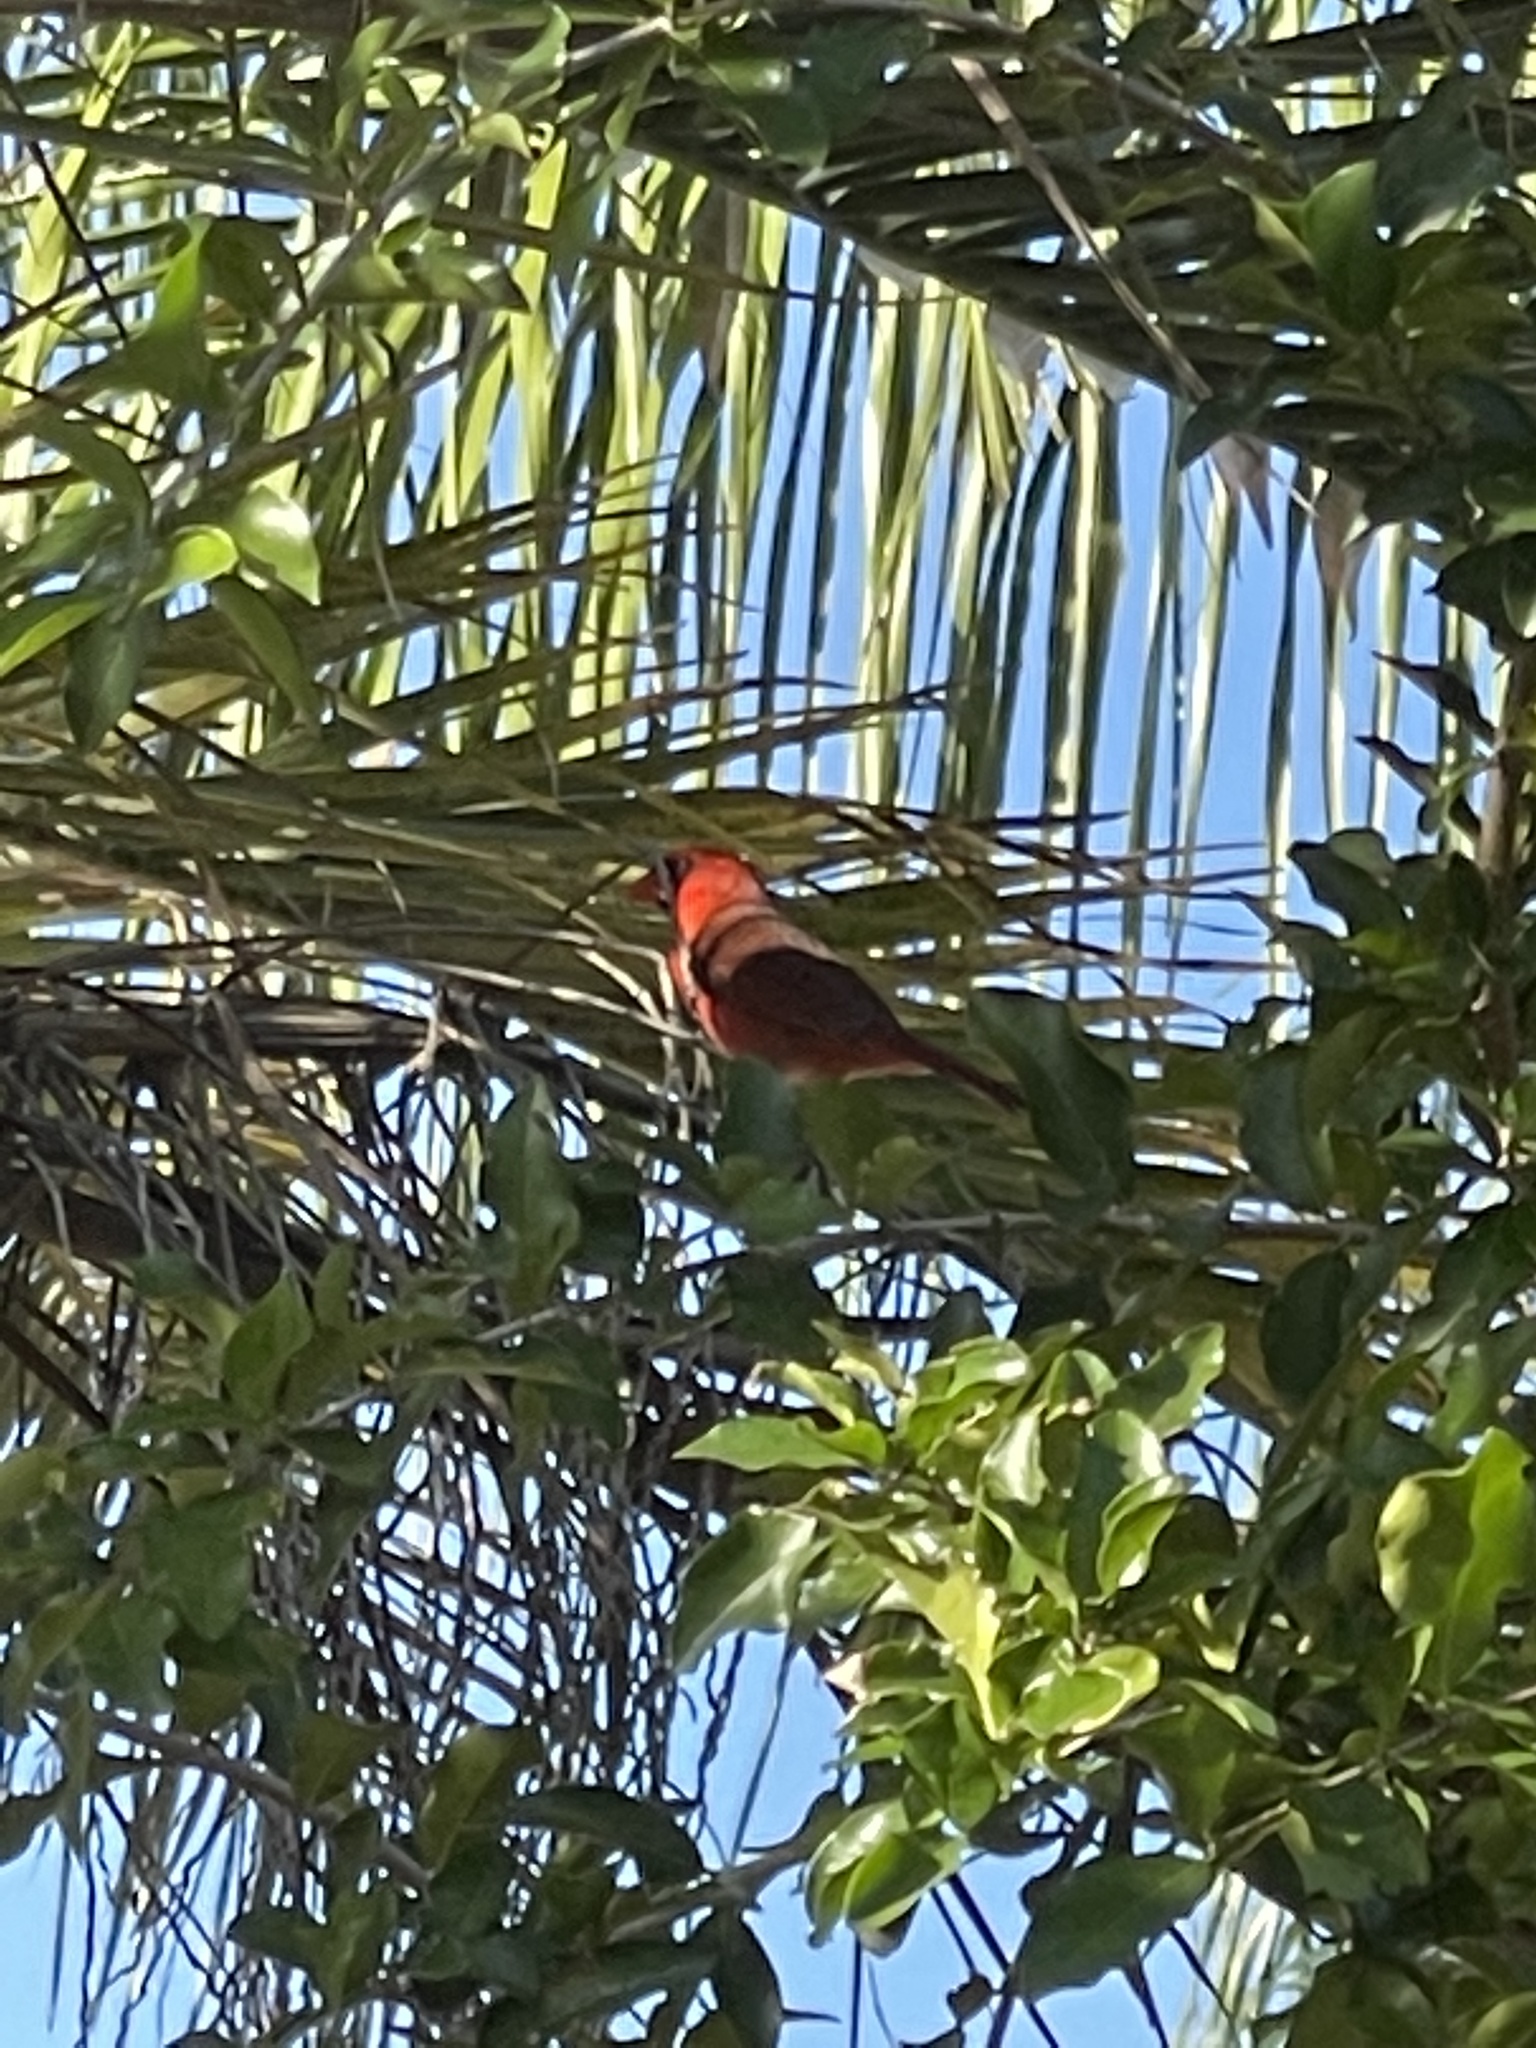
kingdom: Animalia
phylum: Chordata
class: Aves
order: Passeriformes
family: Cardinalidae
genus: Cardinalis
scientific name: Cardinalis cardinalis
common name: Northern cardinal
